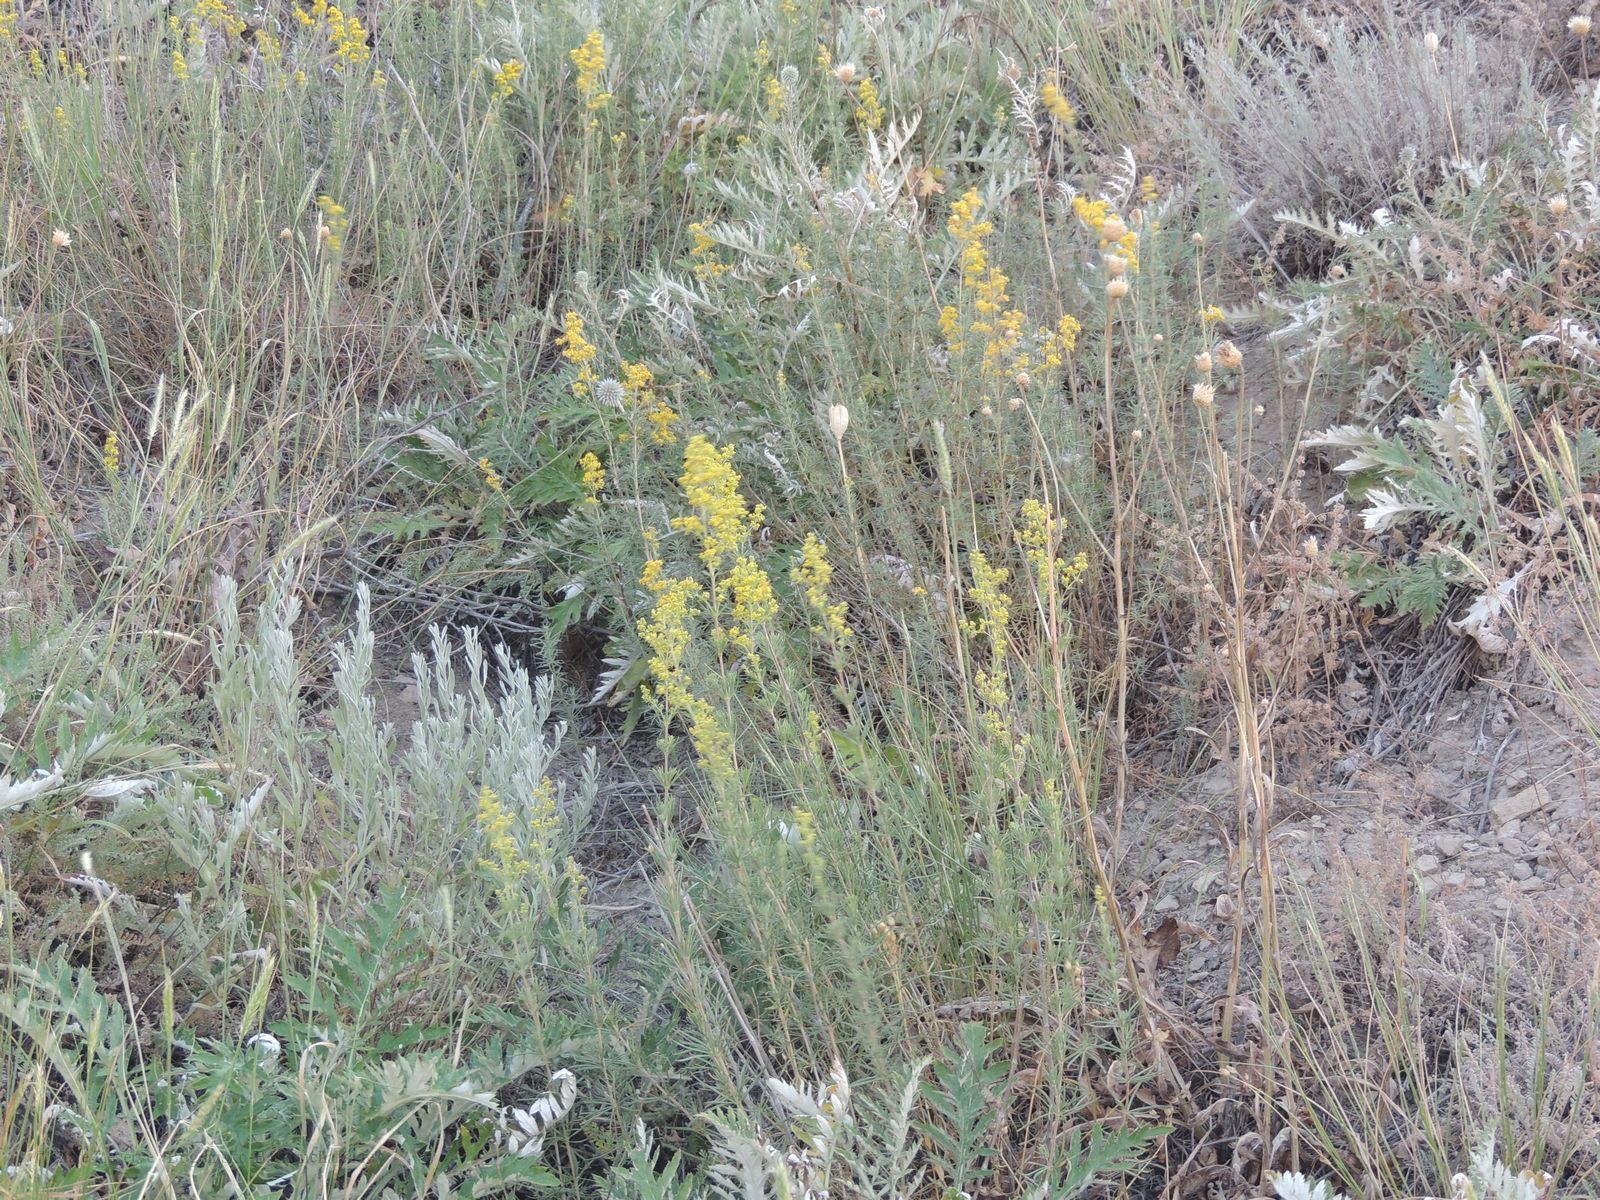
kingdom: Plantae
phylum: Tracheophyta
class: Magnoliopsida
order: Gentianales
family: Rubiaceae
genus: Galium
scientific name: Galium verum
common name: Lady's bedstraw
